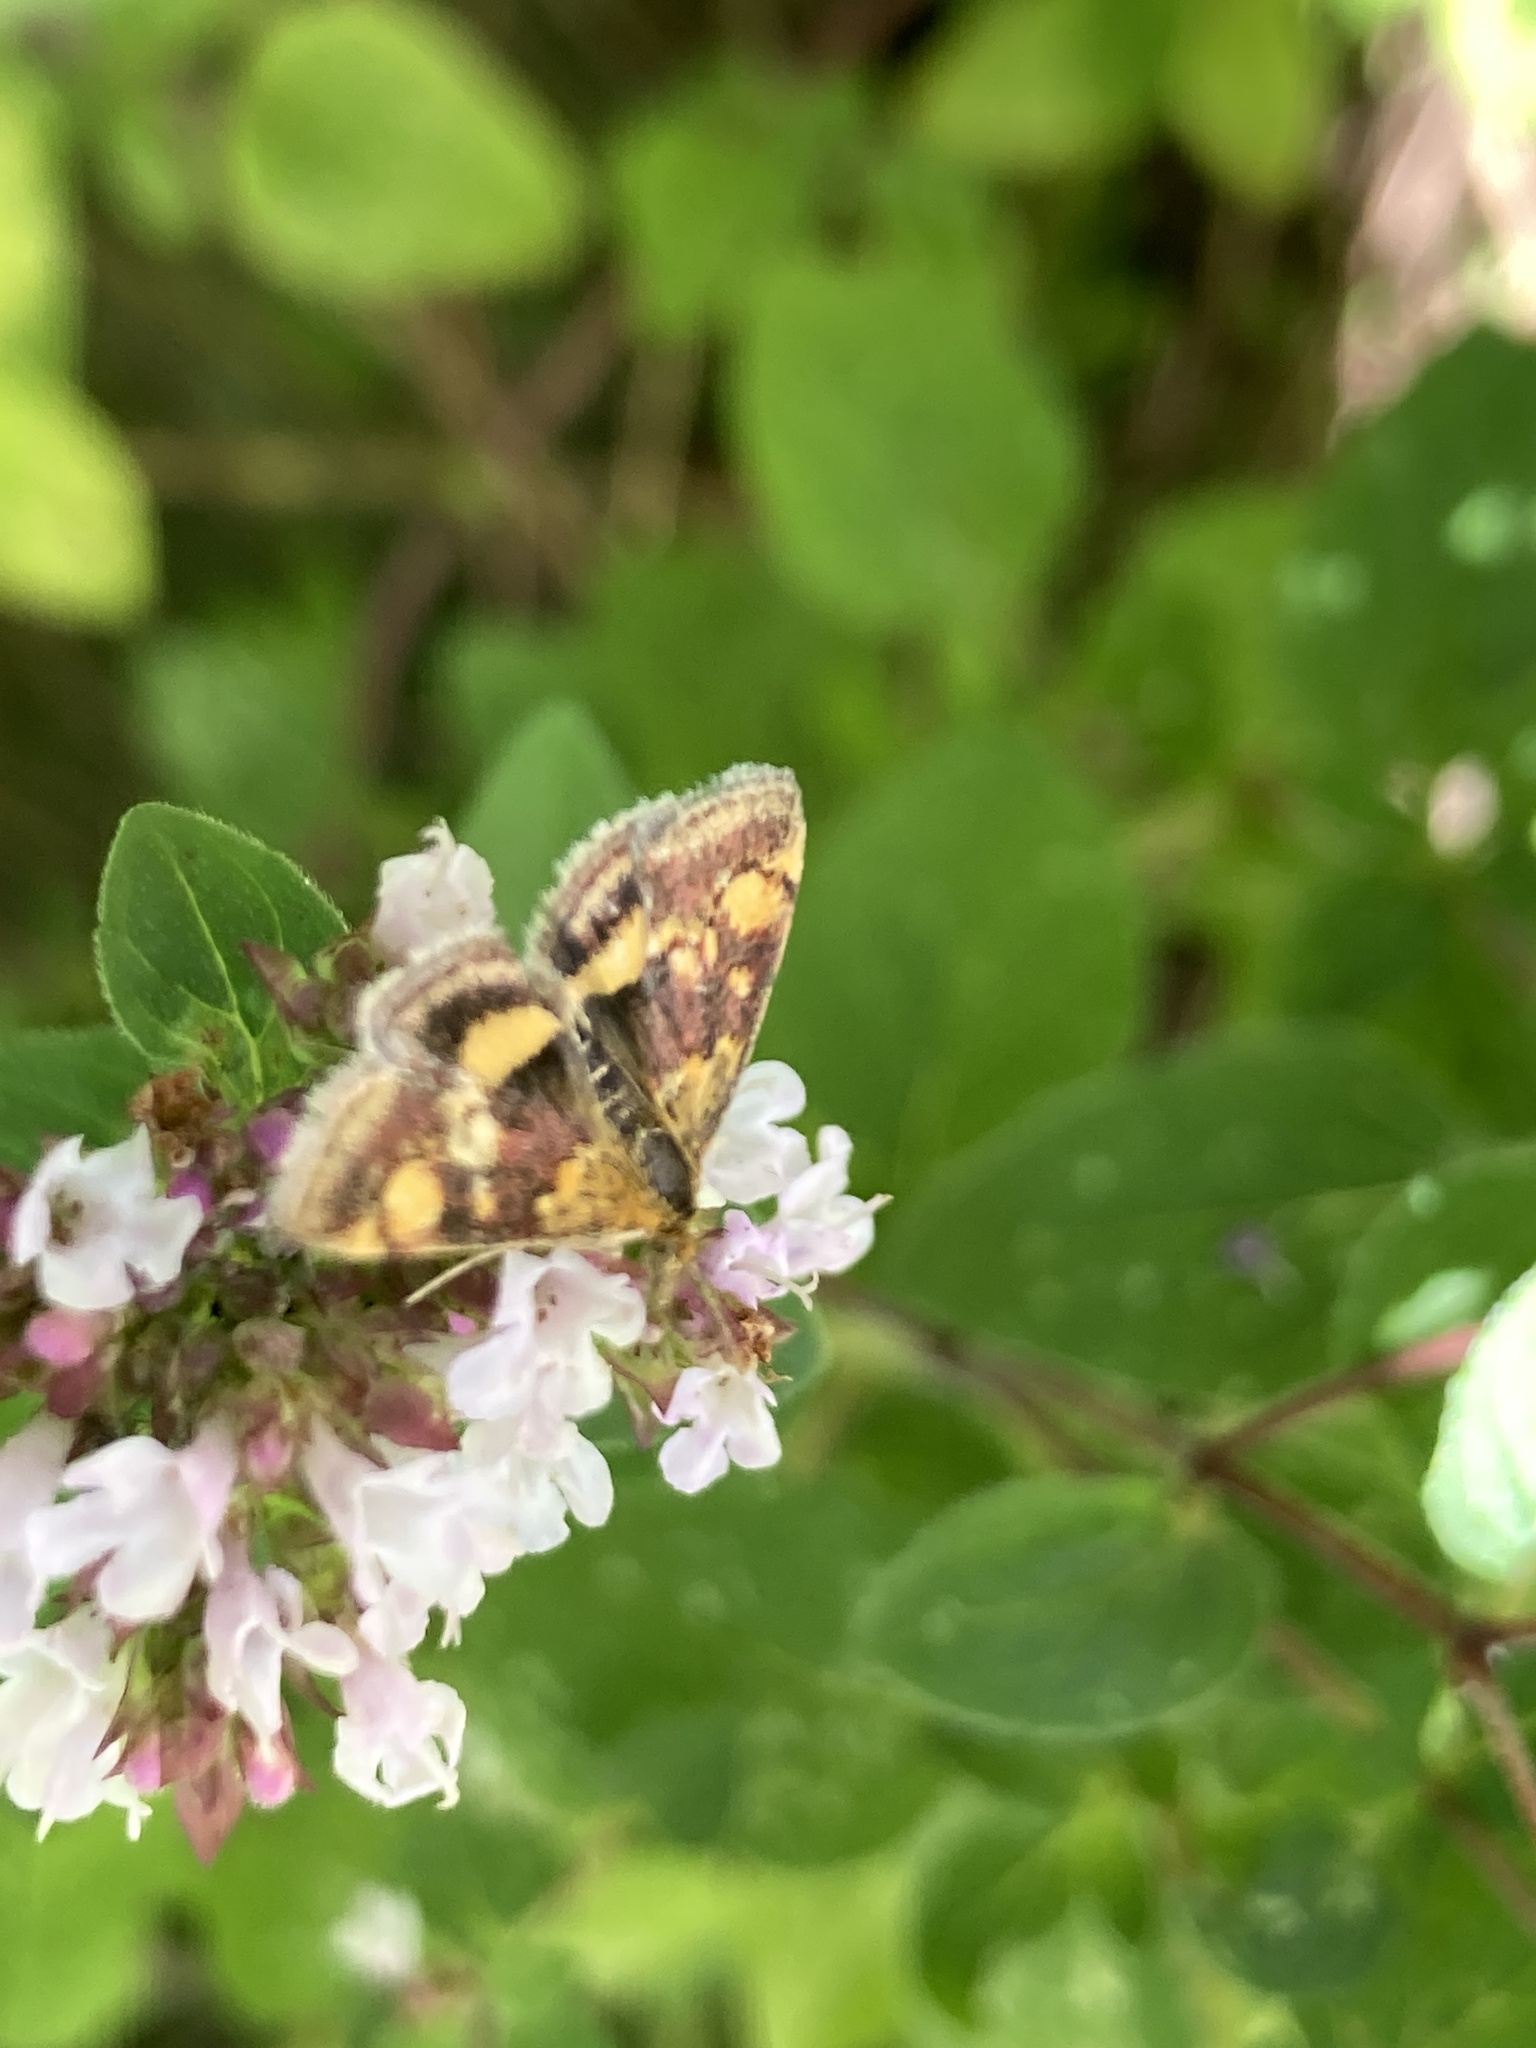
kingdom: Animalia
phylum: Arthropoda
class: Insecta
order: Lepidoptera
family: Crambidae
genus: Pyrausta
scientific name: Pyrausta aurata
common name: Small purple & gold
